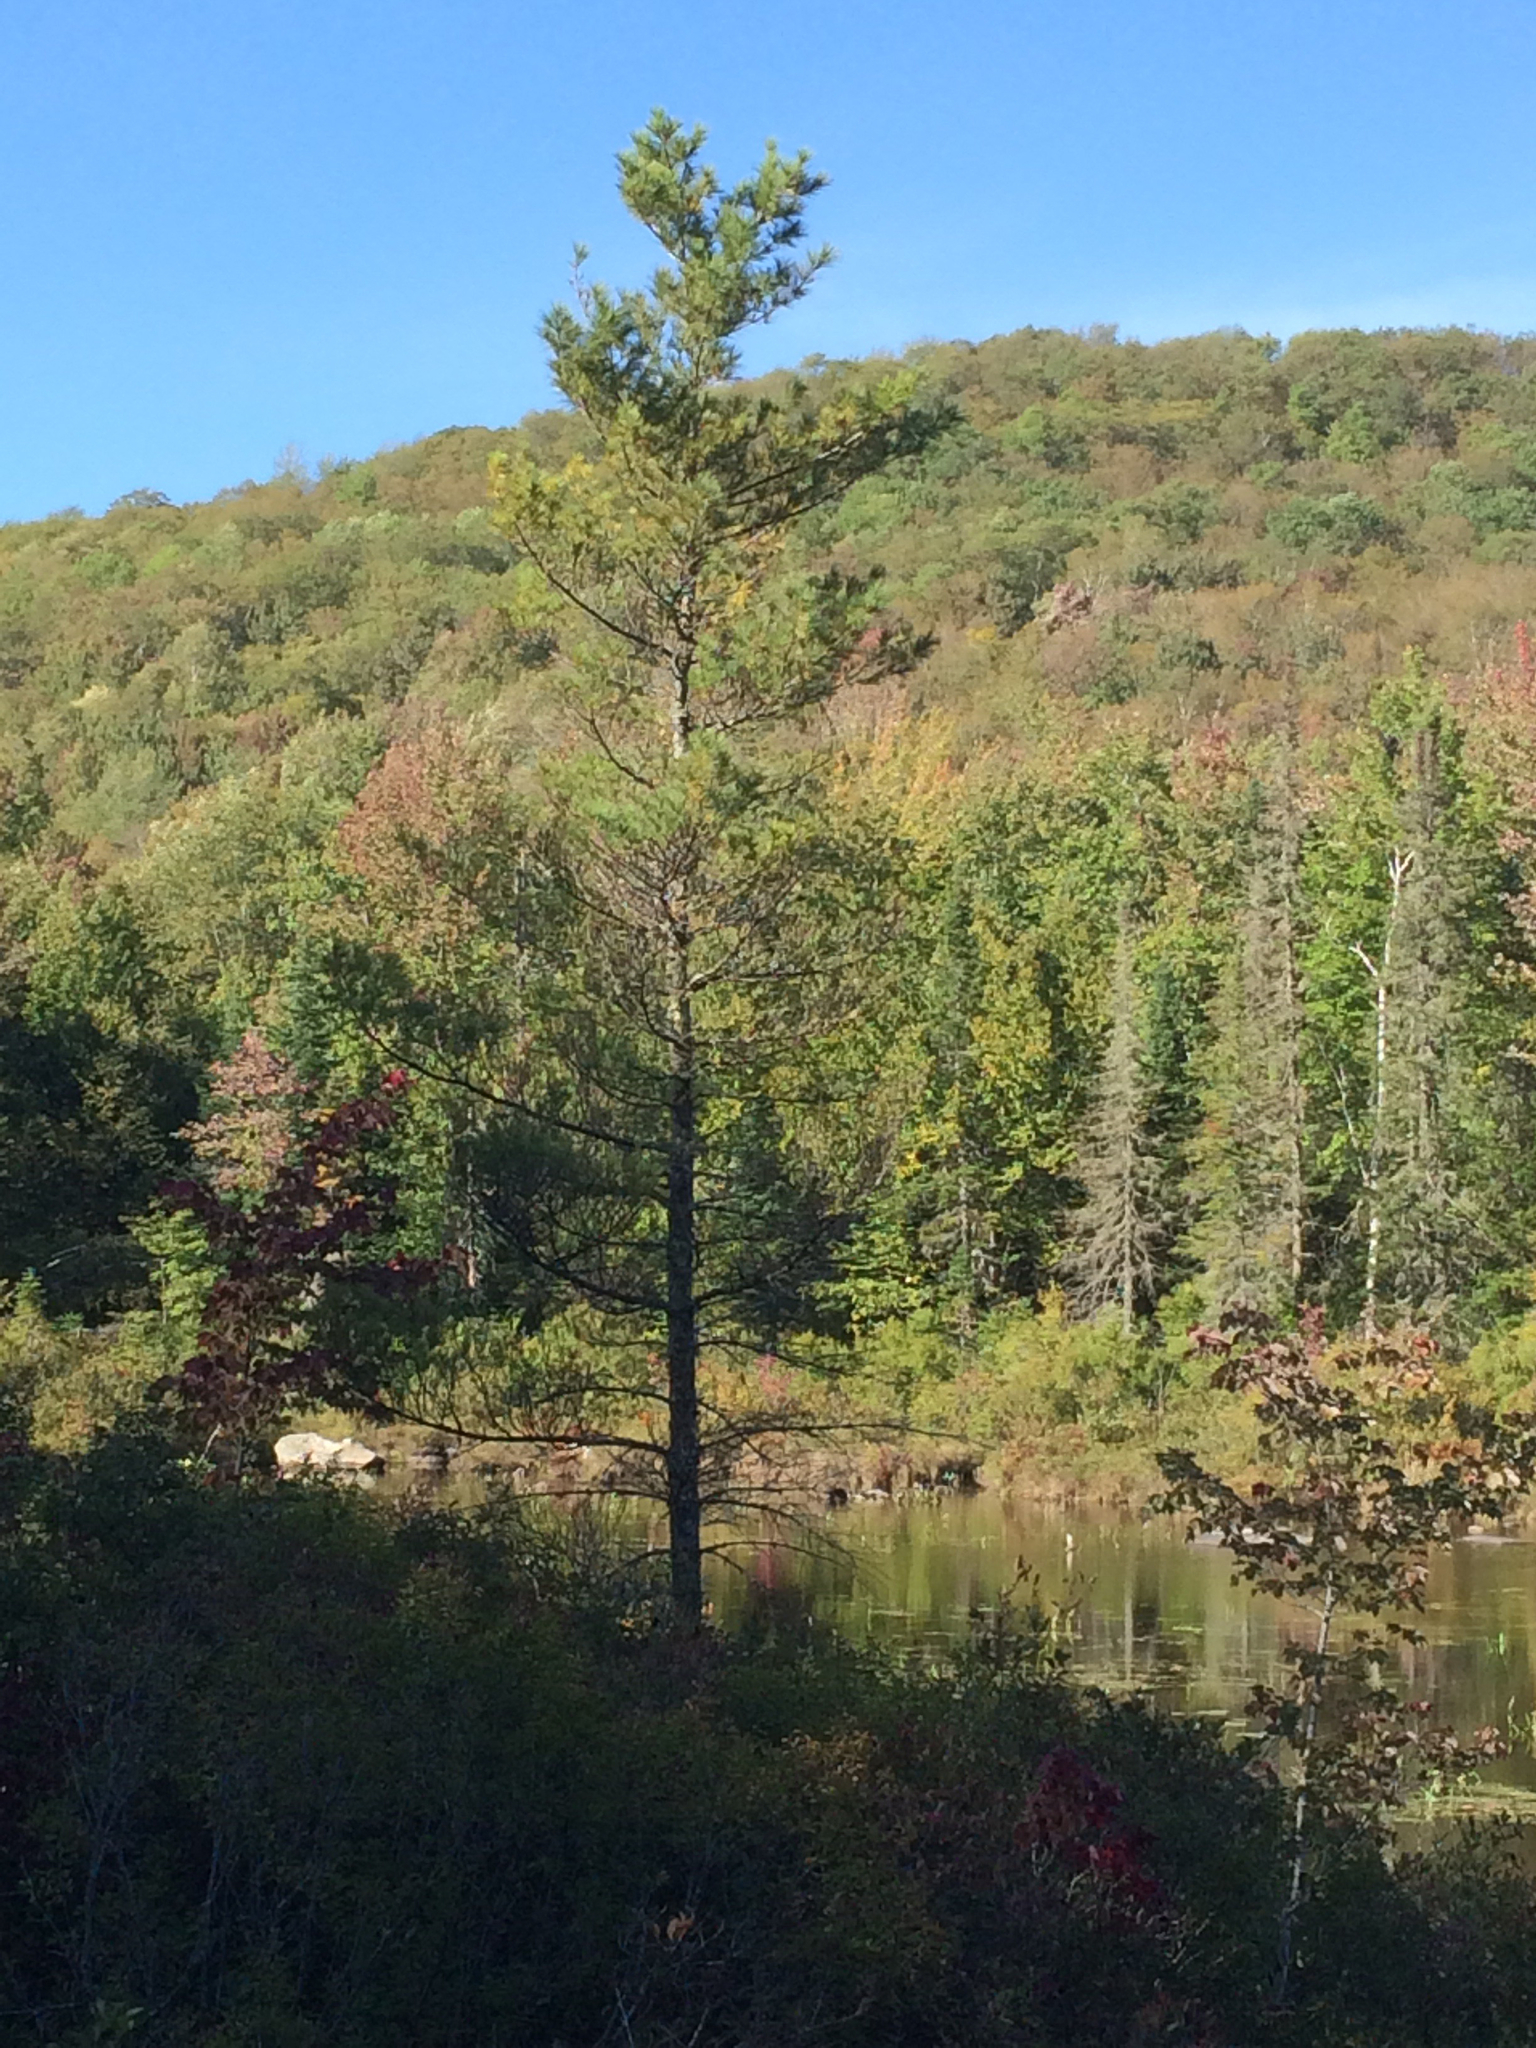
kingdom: Plantae
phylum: Tracheophyta
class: Pinopsida
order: Pinales
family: Pinaceae
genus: Pinus
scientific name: Pinus strobus
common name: Weymouth pine
